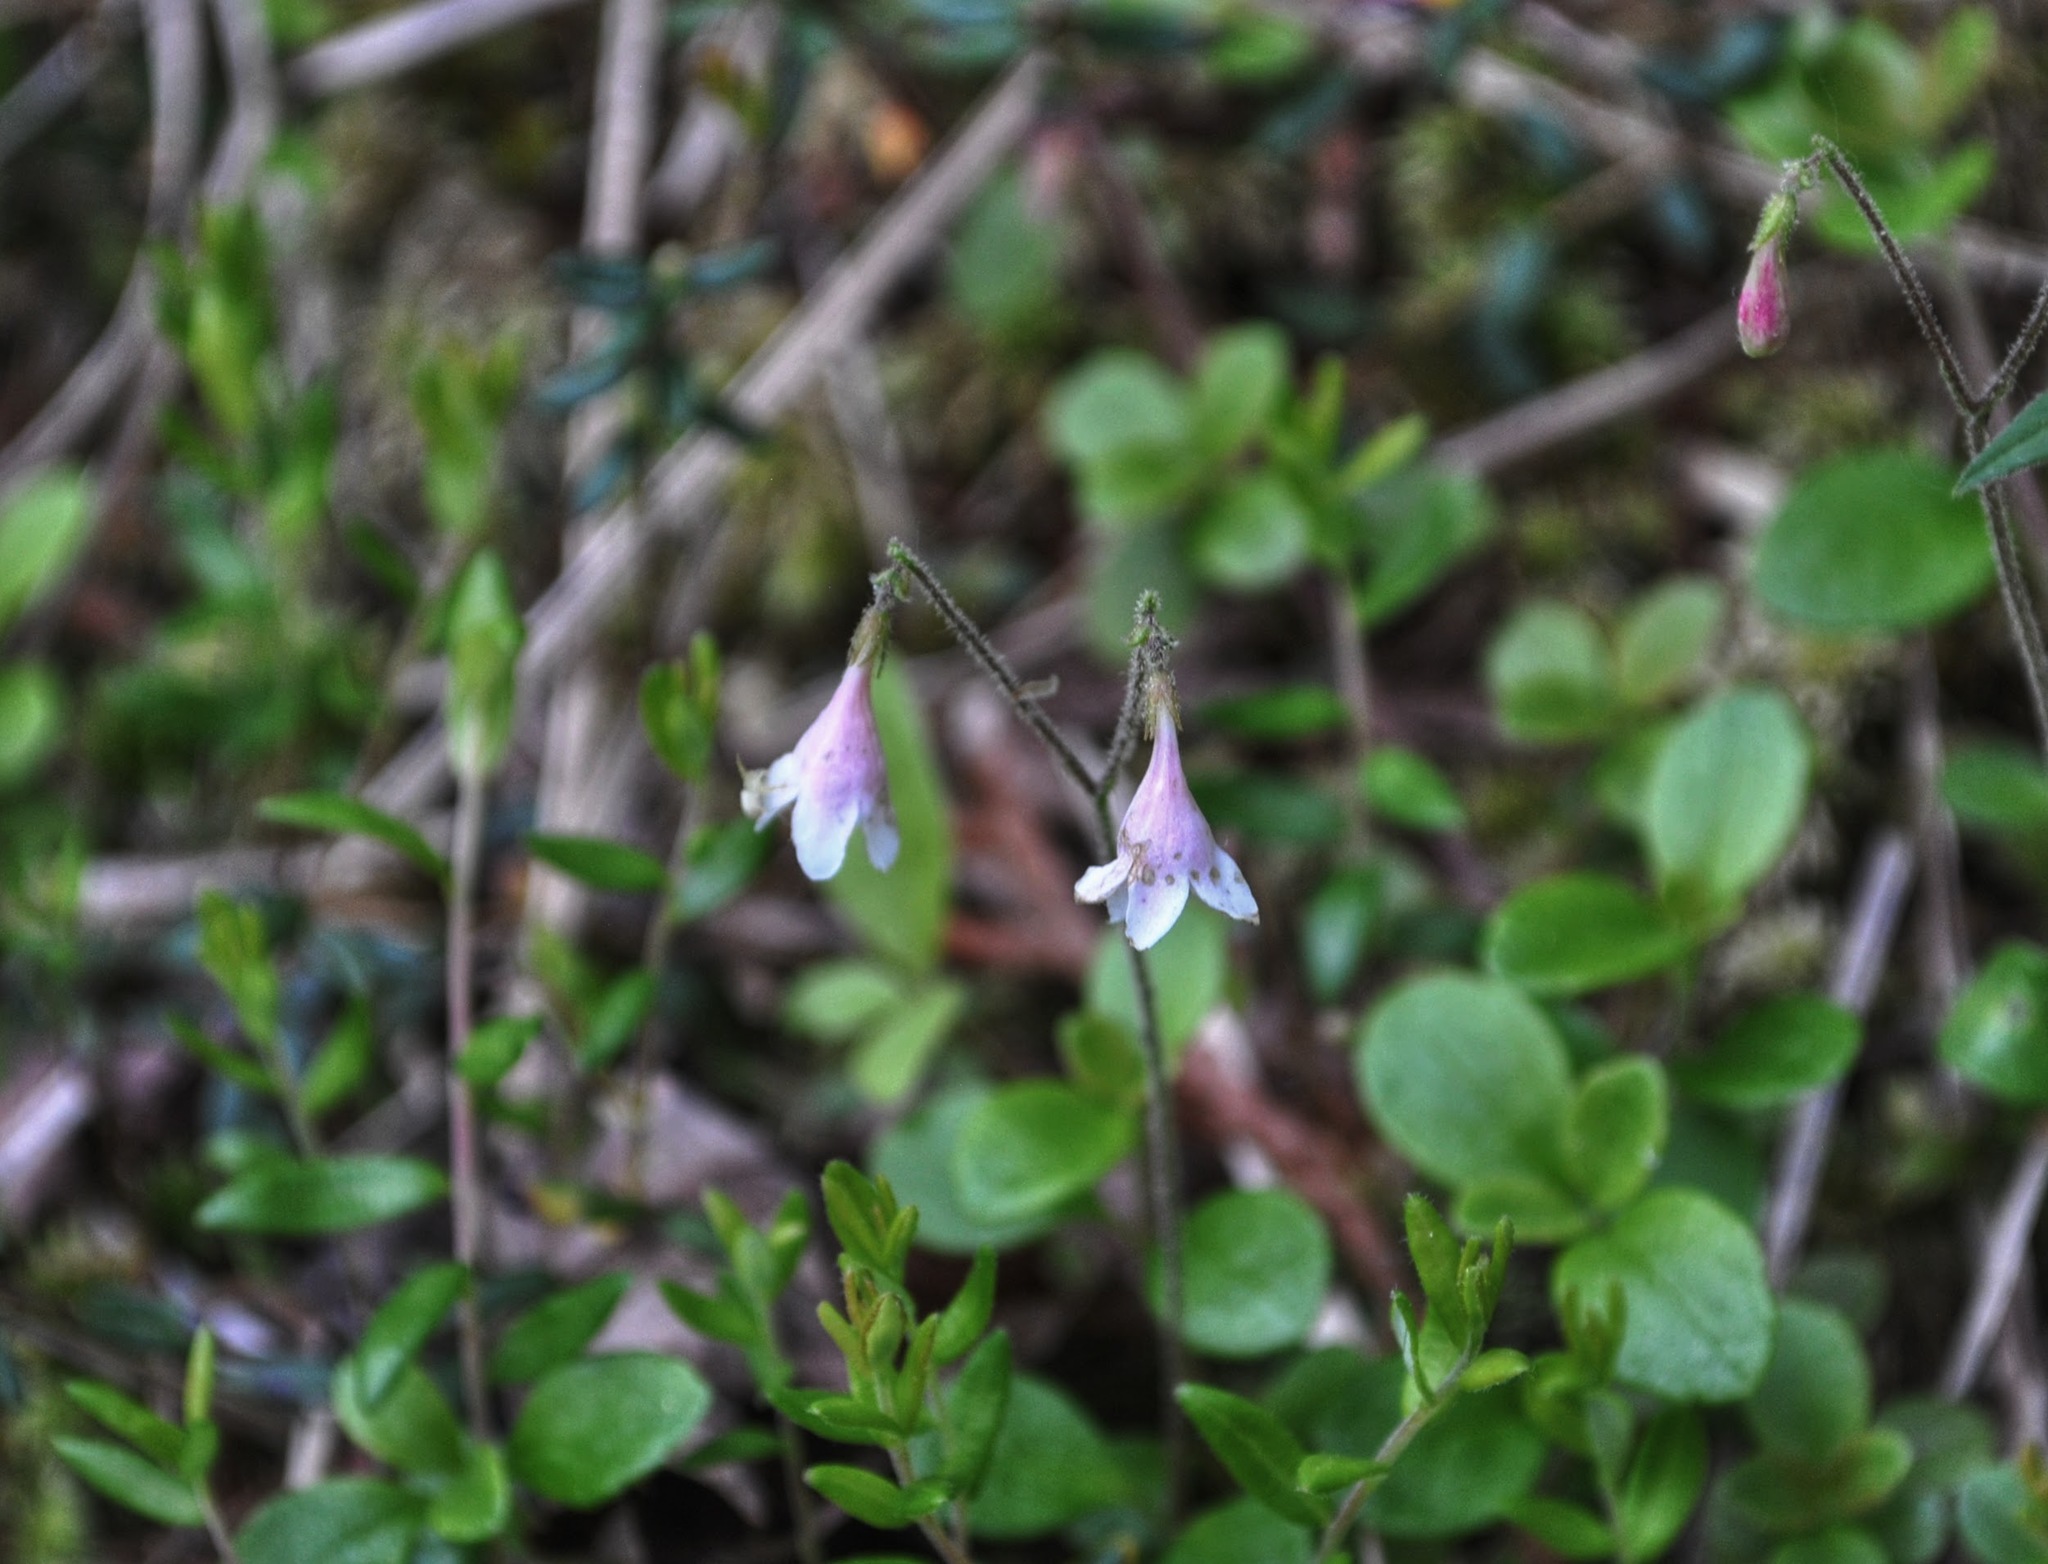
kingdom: Plantae
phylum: Tracheophyta
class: Magnoliopsida
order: Dipsacales
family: Caprifoliaceae
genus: Linnaea
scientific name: Linnaea borealis
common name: Twinflower
